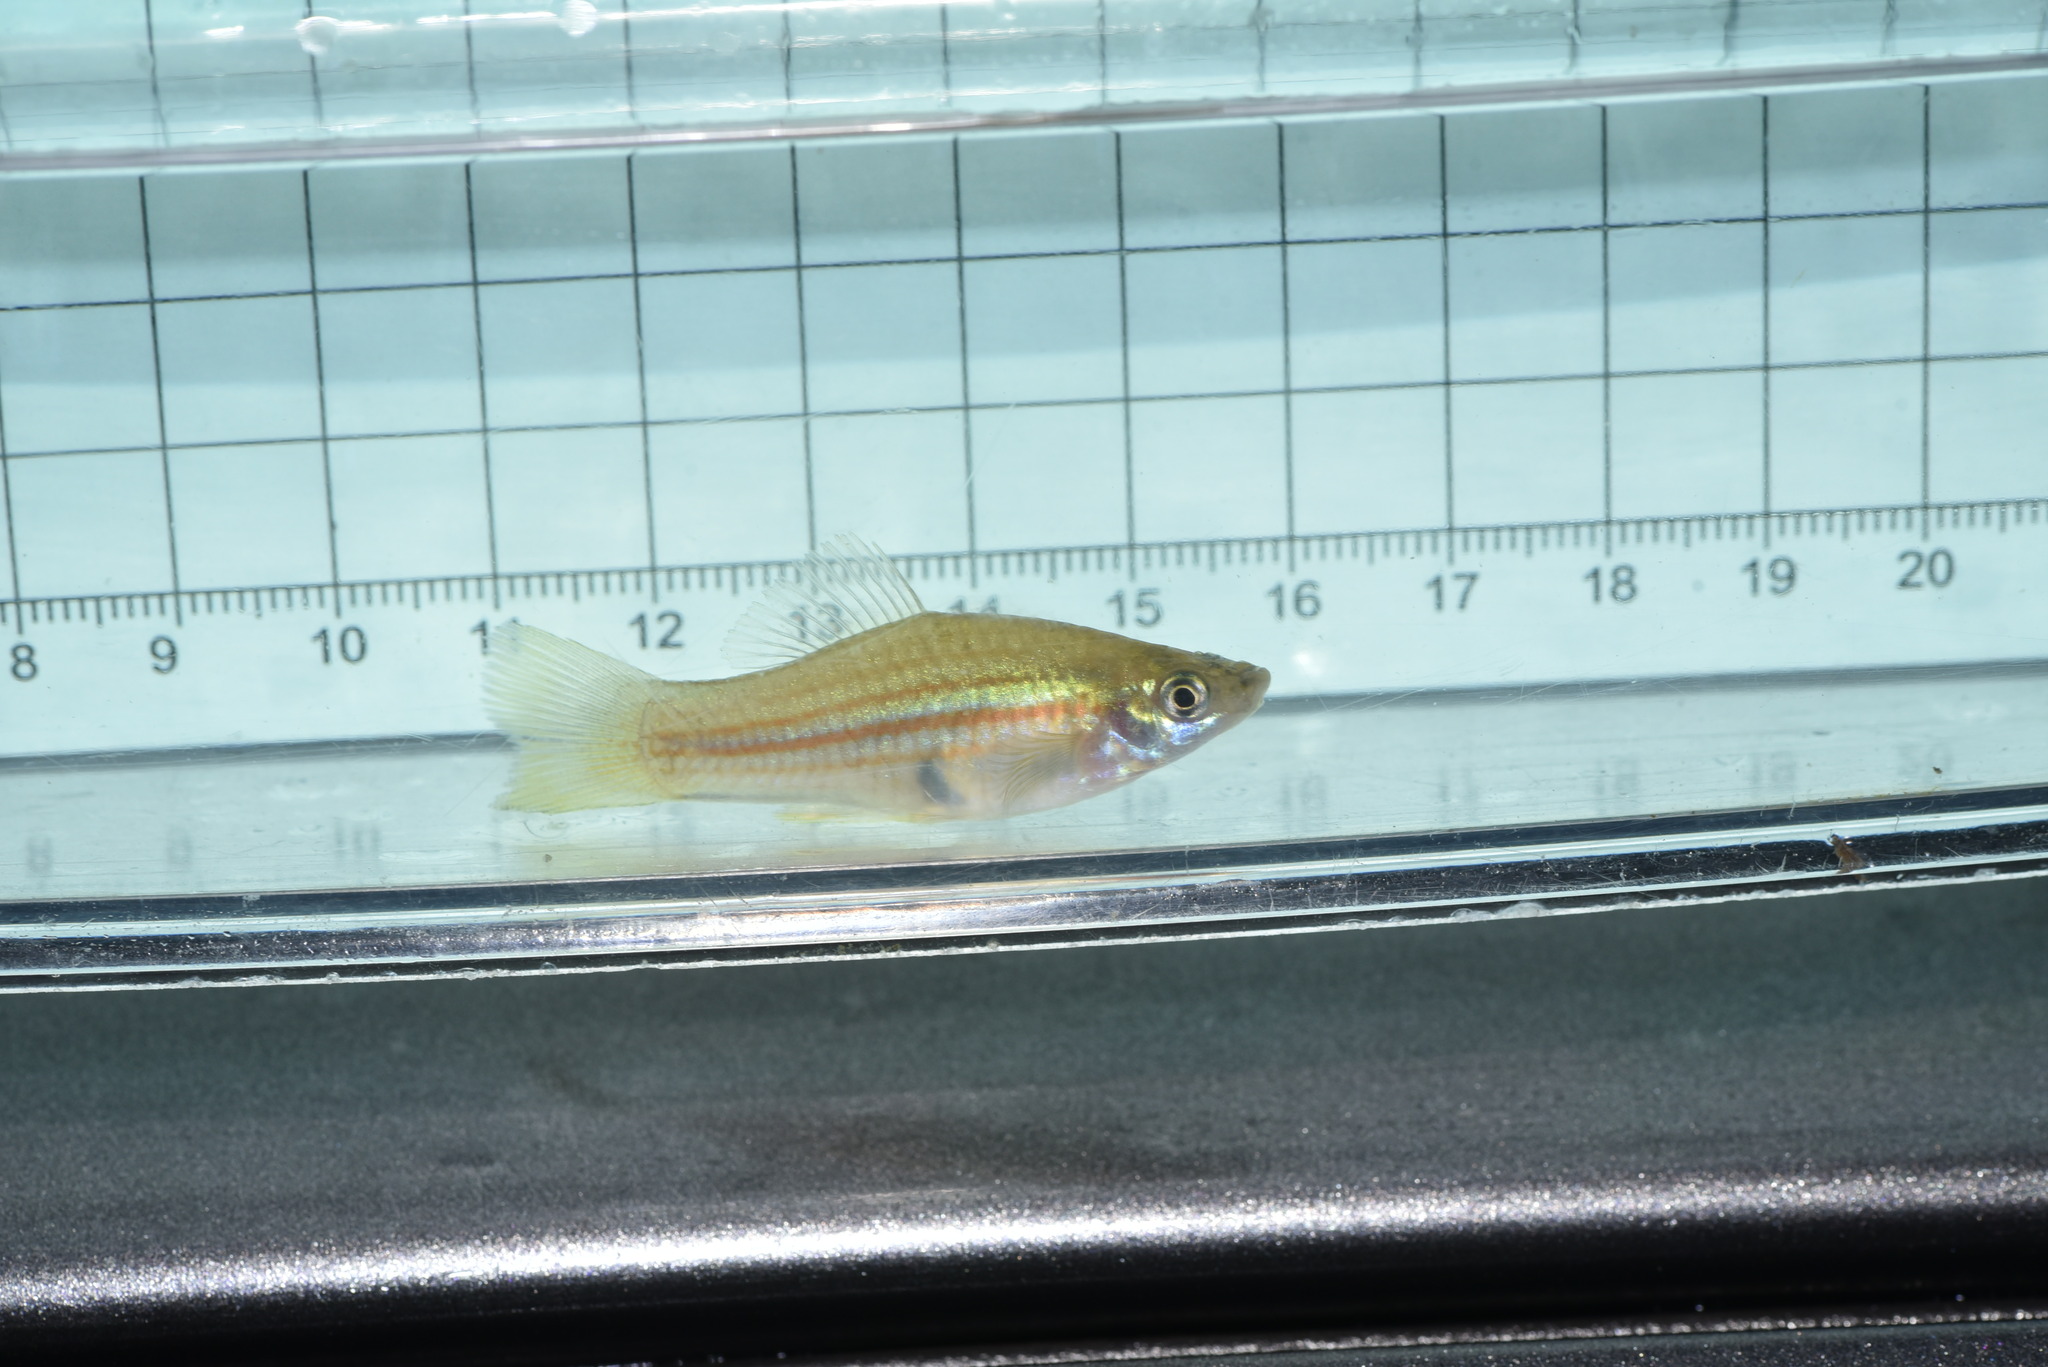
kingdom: Animalia
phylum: Chordata
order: Cyprinodontiformes
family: Poeciliidae
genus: Xiphophorus
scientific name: Xiphophorus hellerii
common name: Green swordtail
